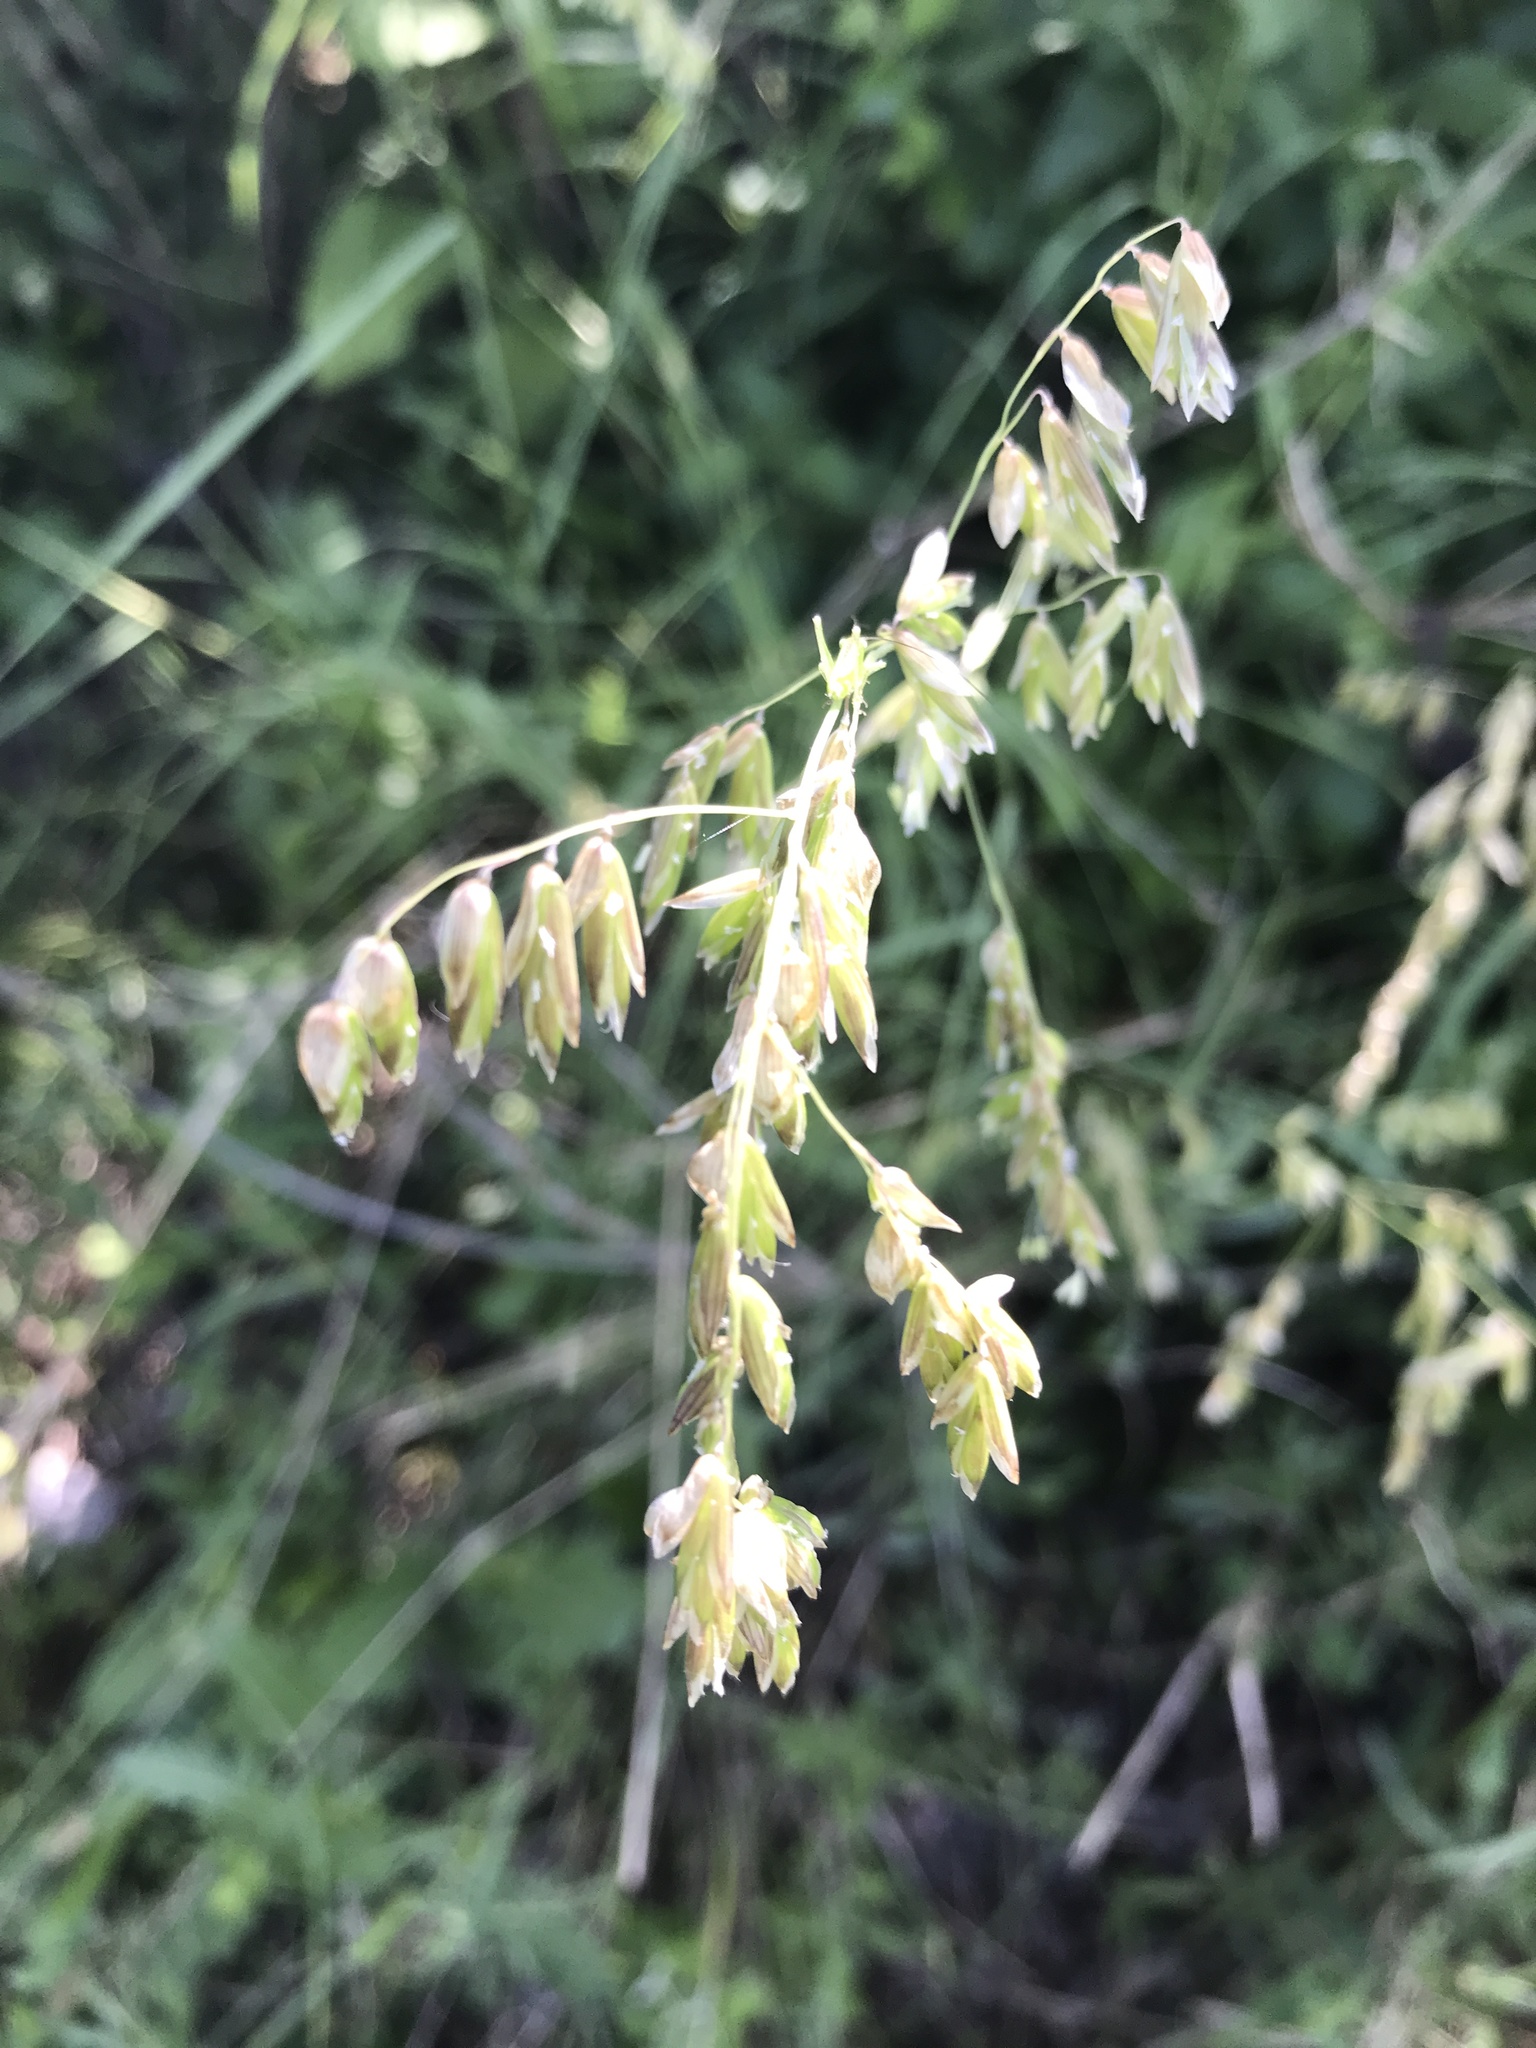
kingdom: Plantae
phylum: Tracheophyta
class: Liliopsida
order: Poales
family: Poaceae
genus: Melica
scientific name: Melica nitens
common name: Three-flower melic
